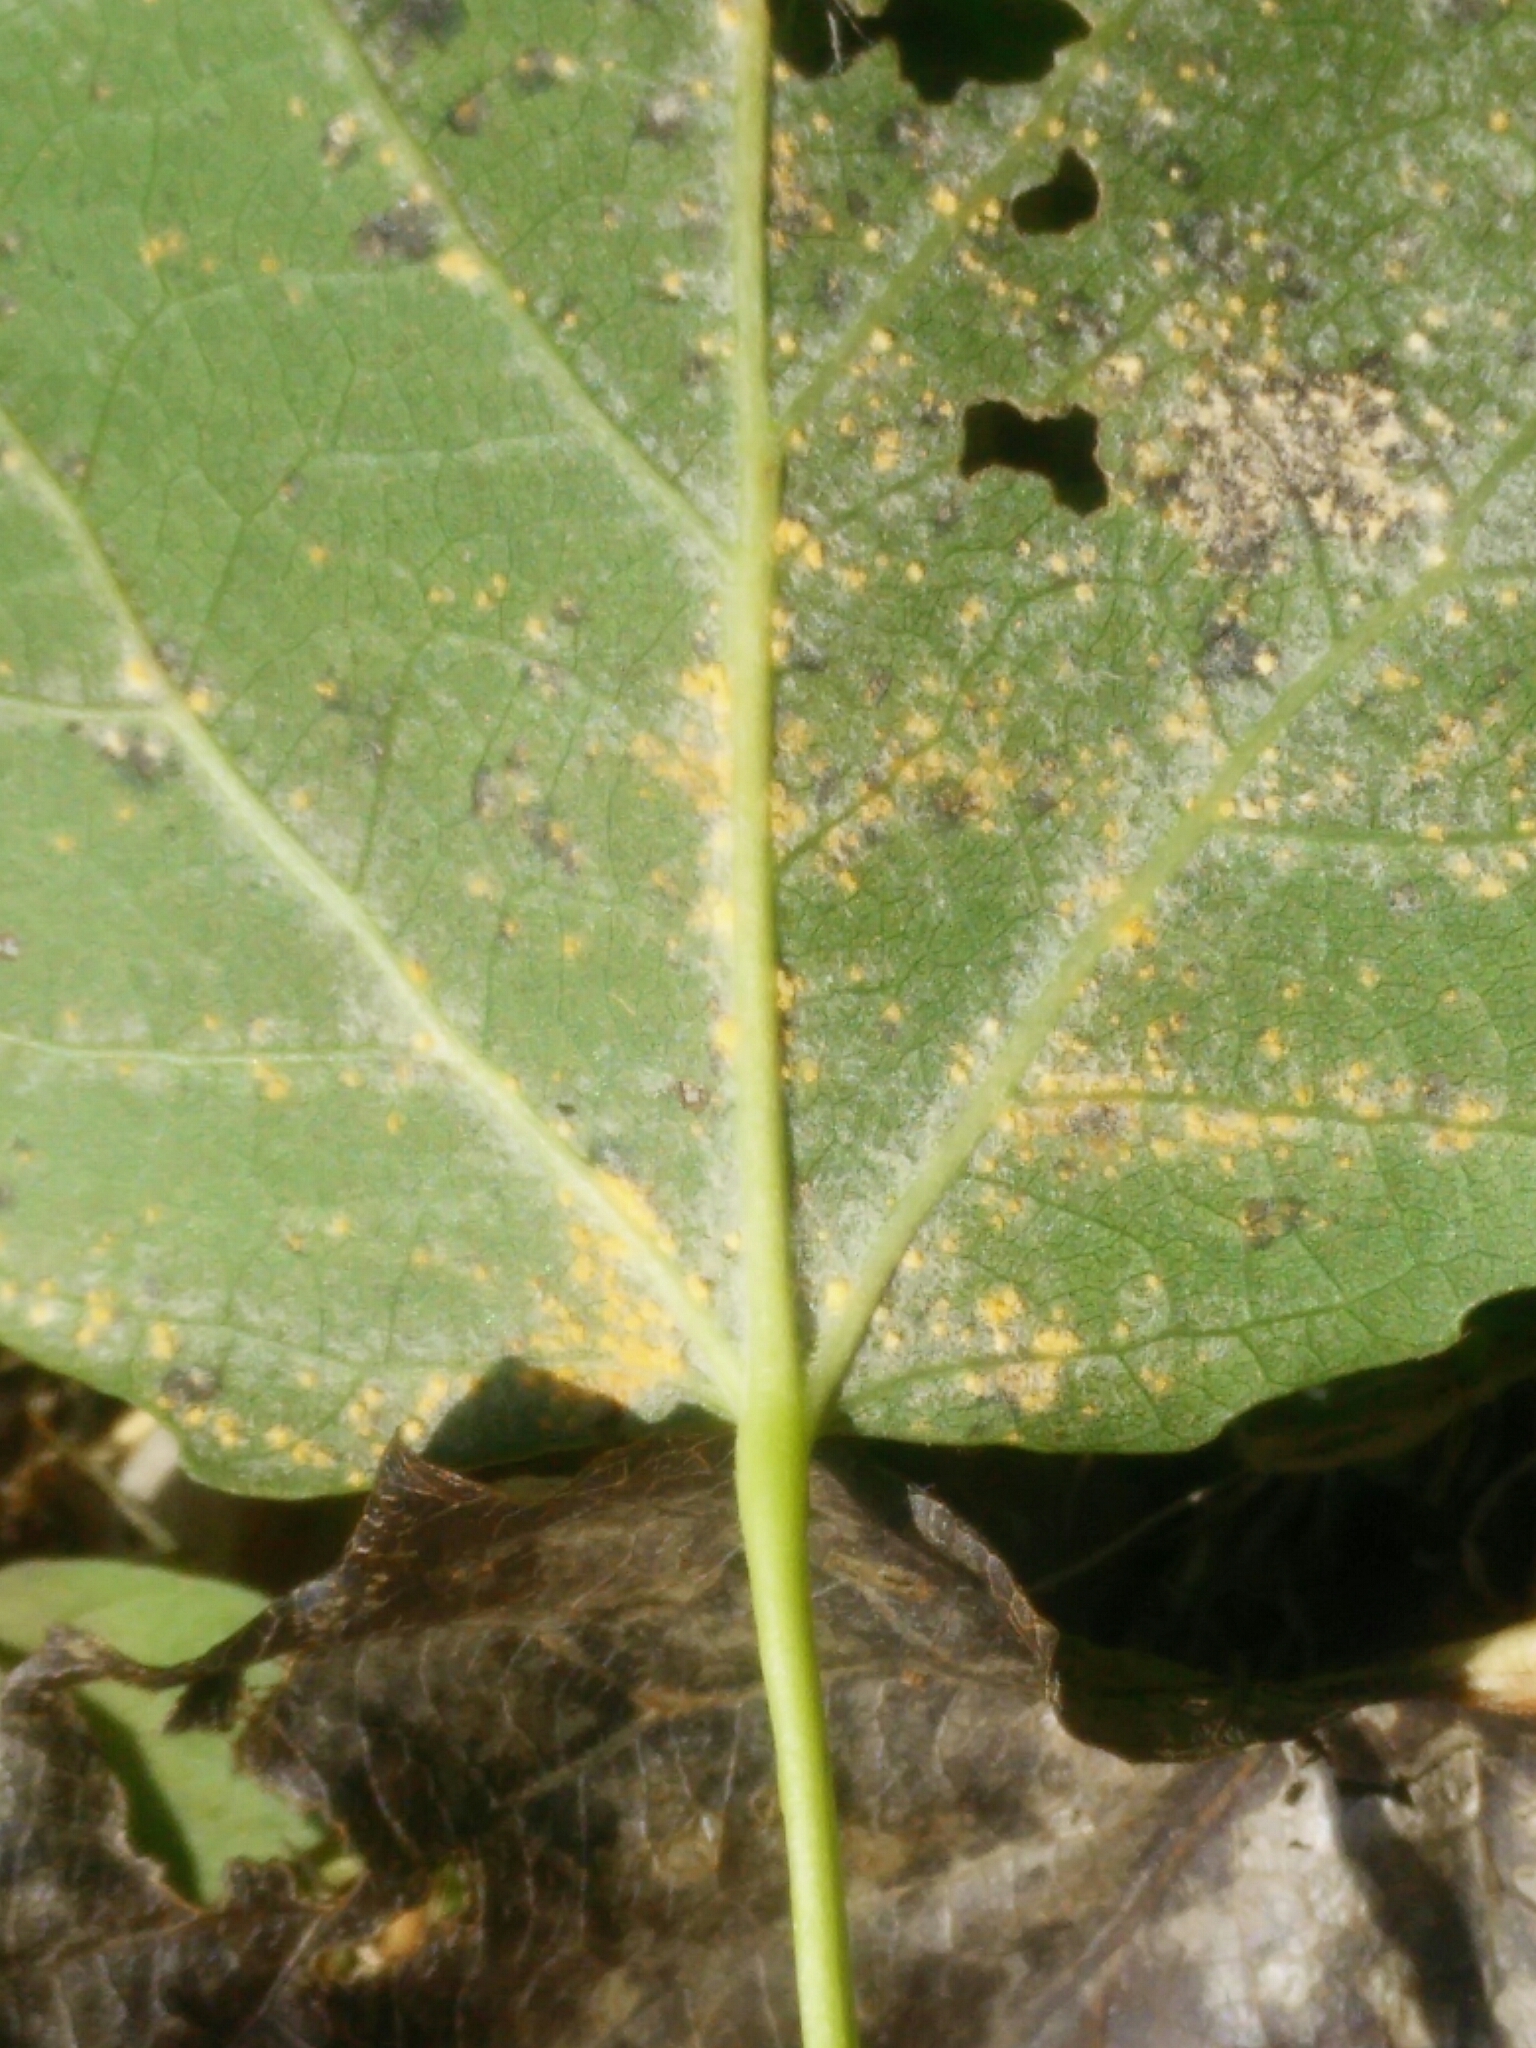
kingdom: Fungi
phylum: Basidiomycota
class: Pucciniomycetes
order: Pucciniales
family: Melampsoraceae
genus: Melampsora
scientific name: Melampsora
